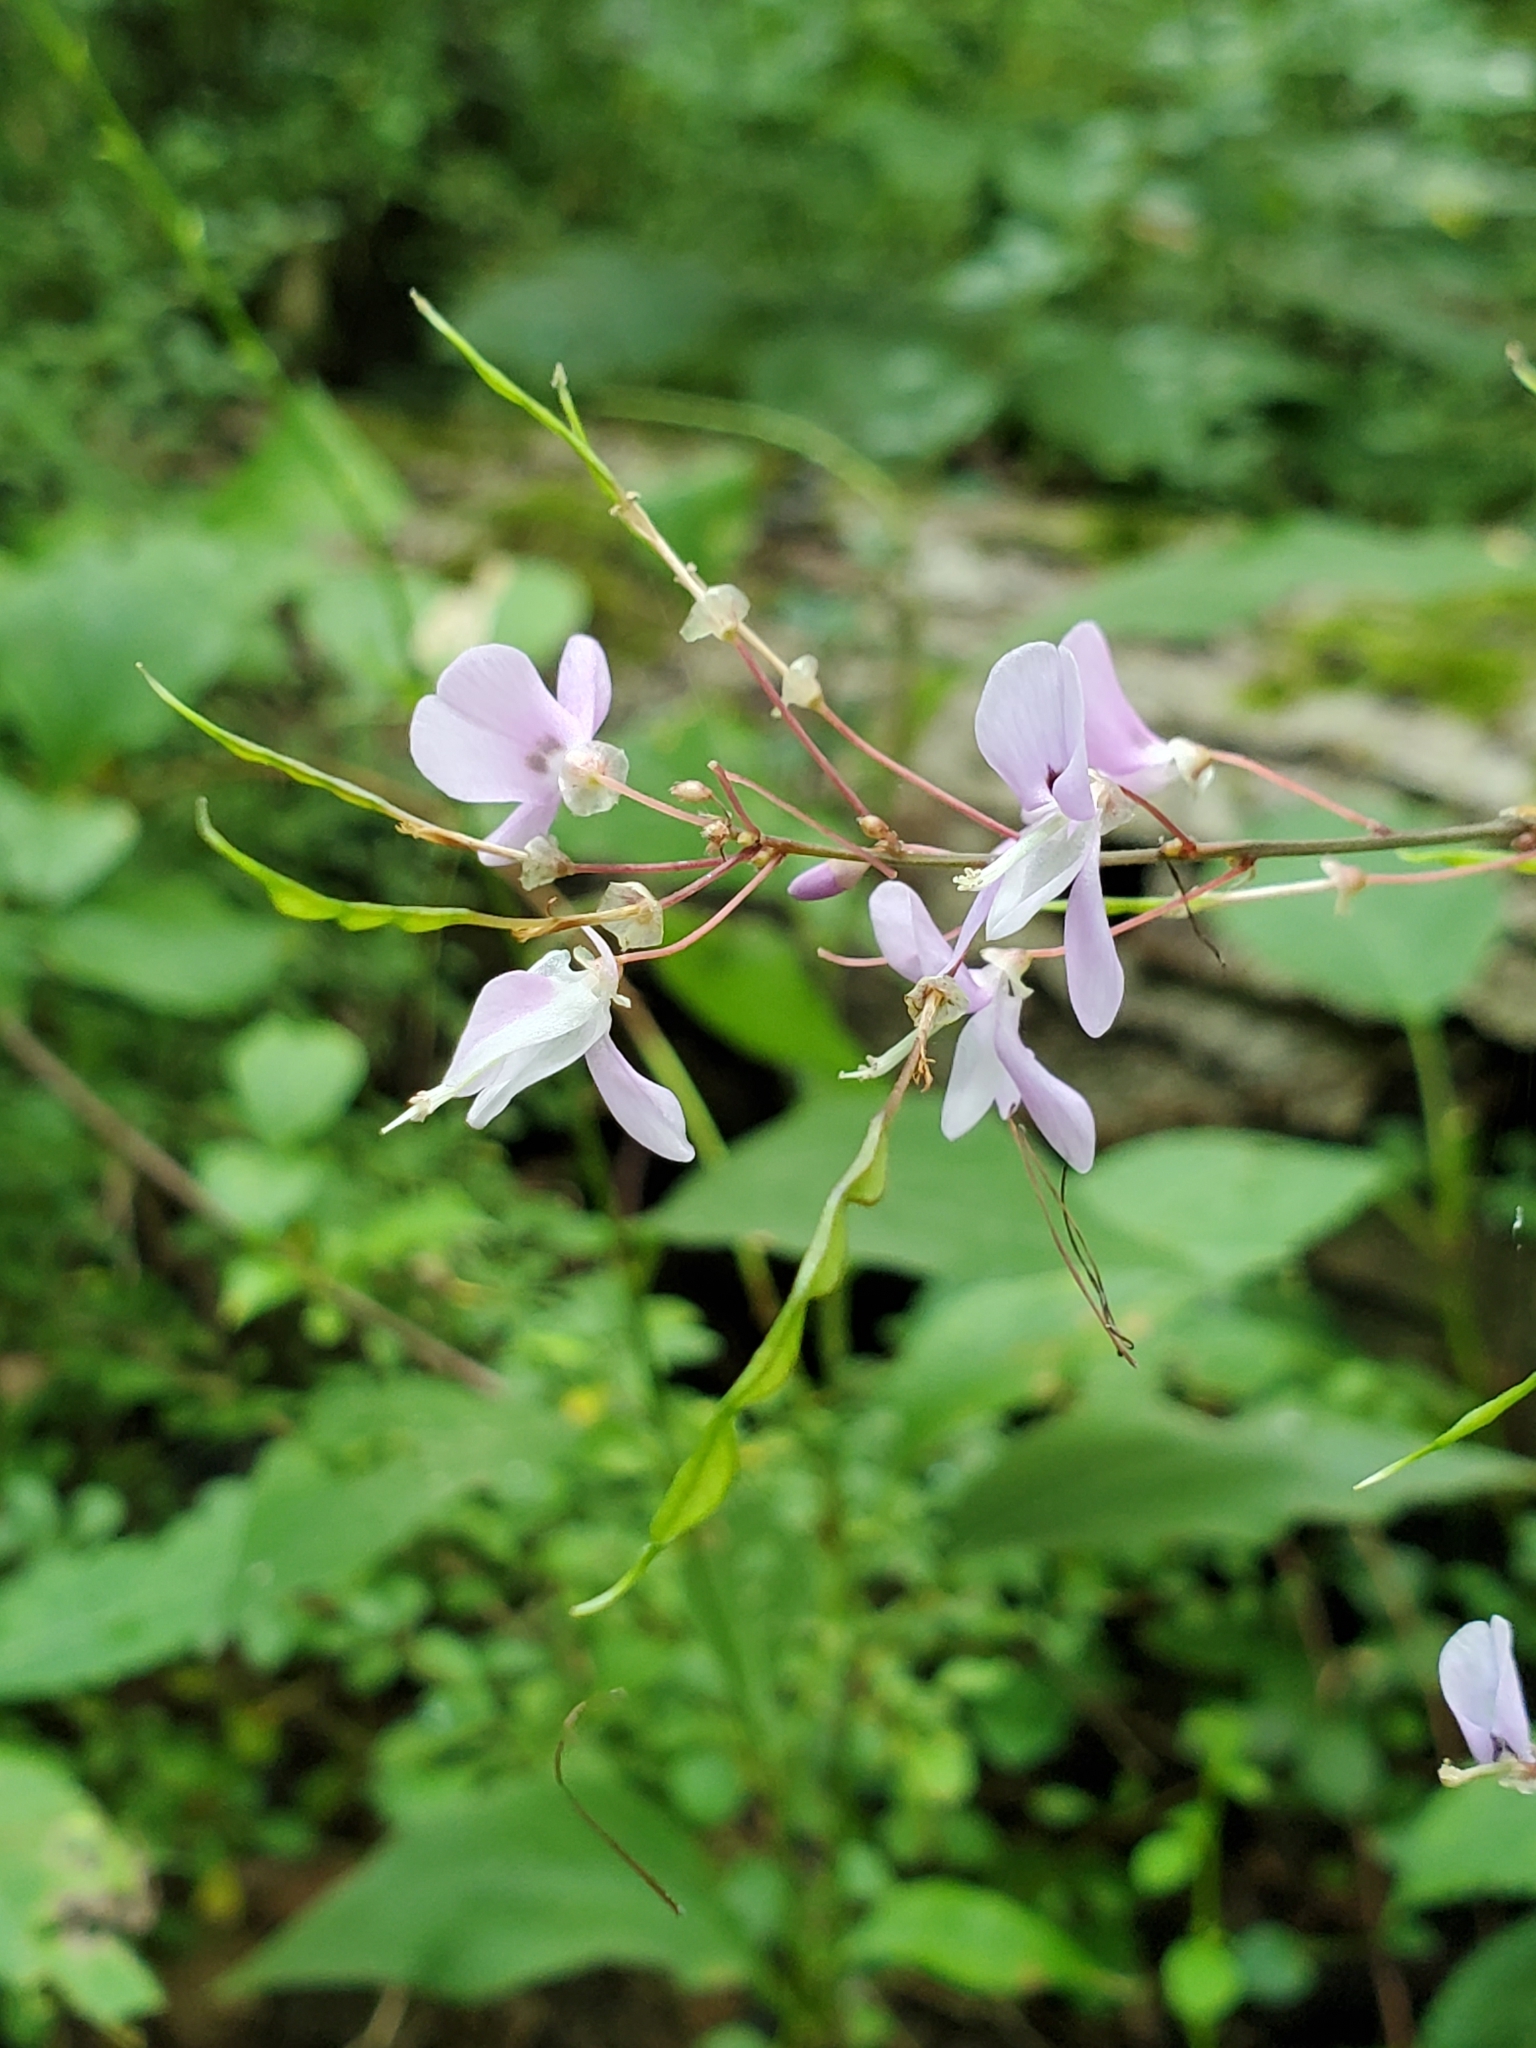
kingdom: Plantae
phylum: Tracheophyta
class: Magnoliopsida
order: Fabales
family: Fabaceae
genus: Hylodesmum
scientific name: Hylodesmum nudiflorum
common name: Bare-stemmed tick-trefoil
